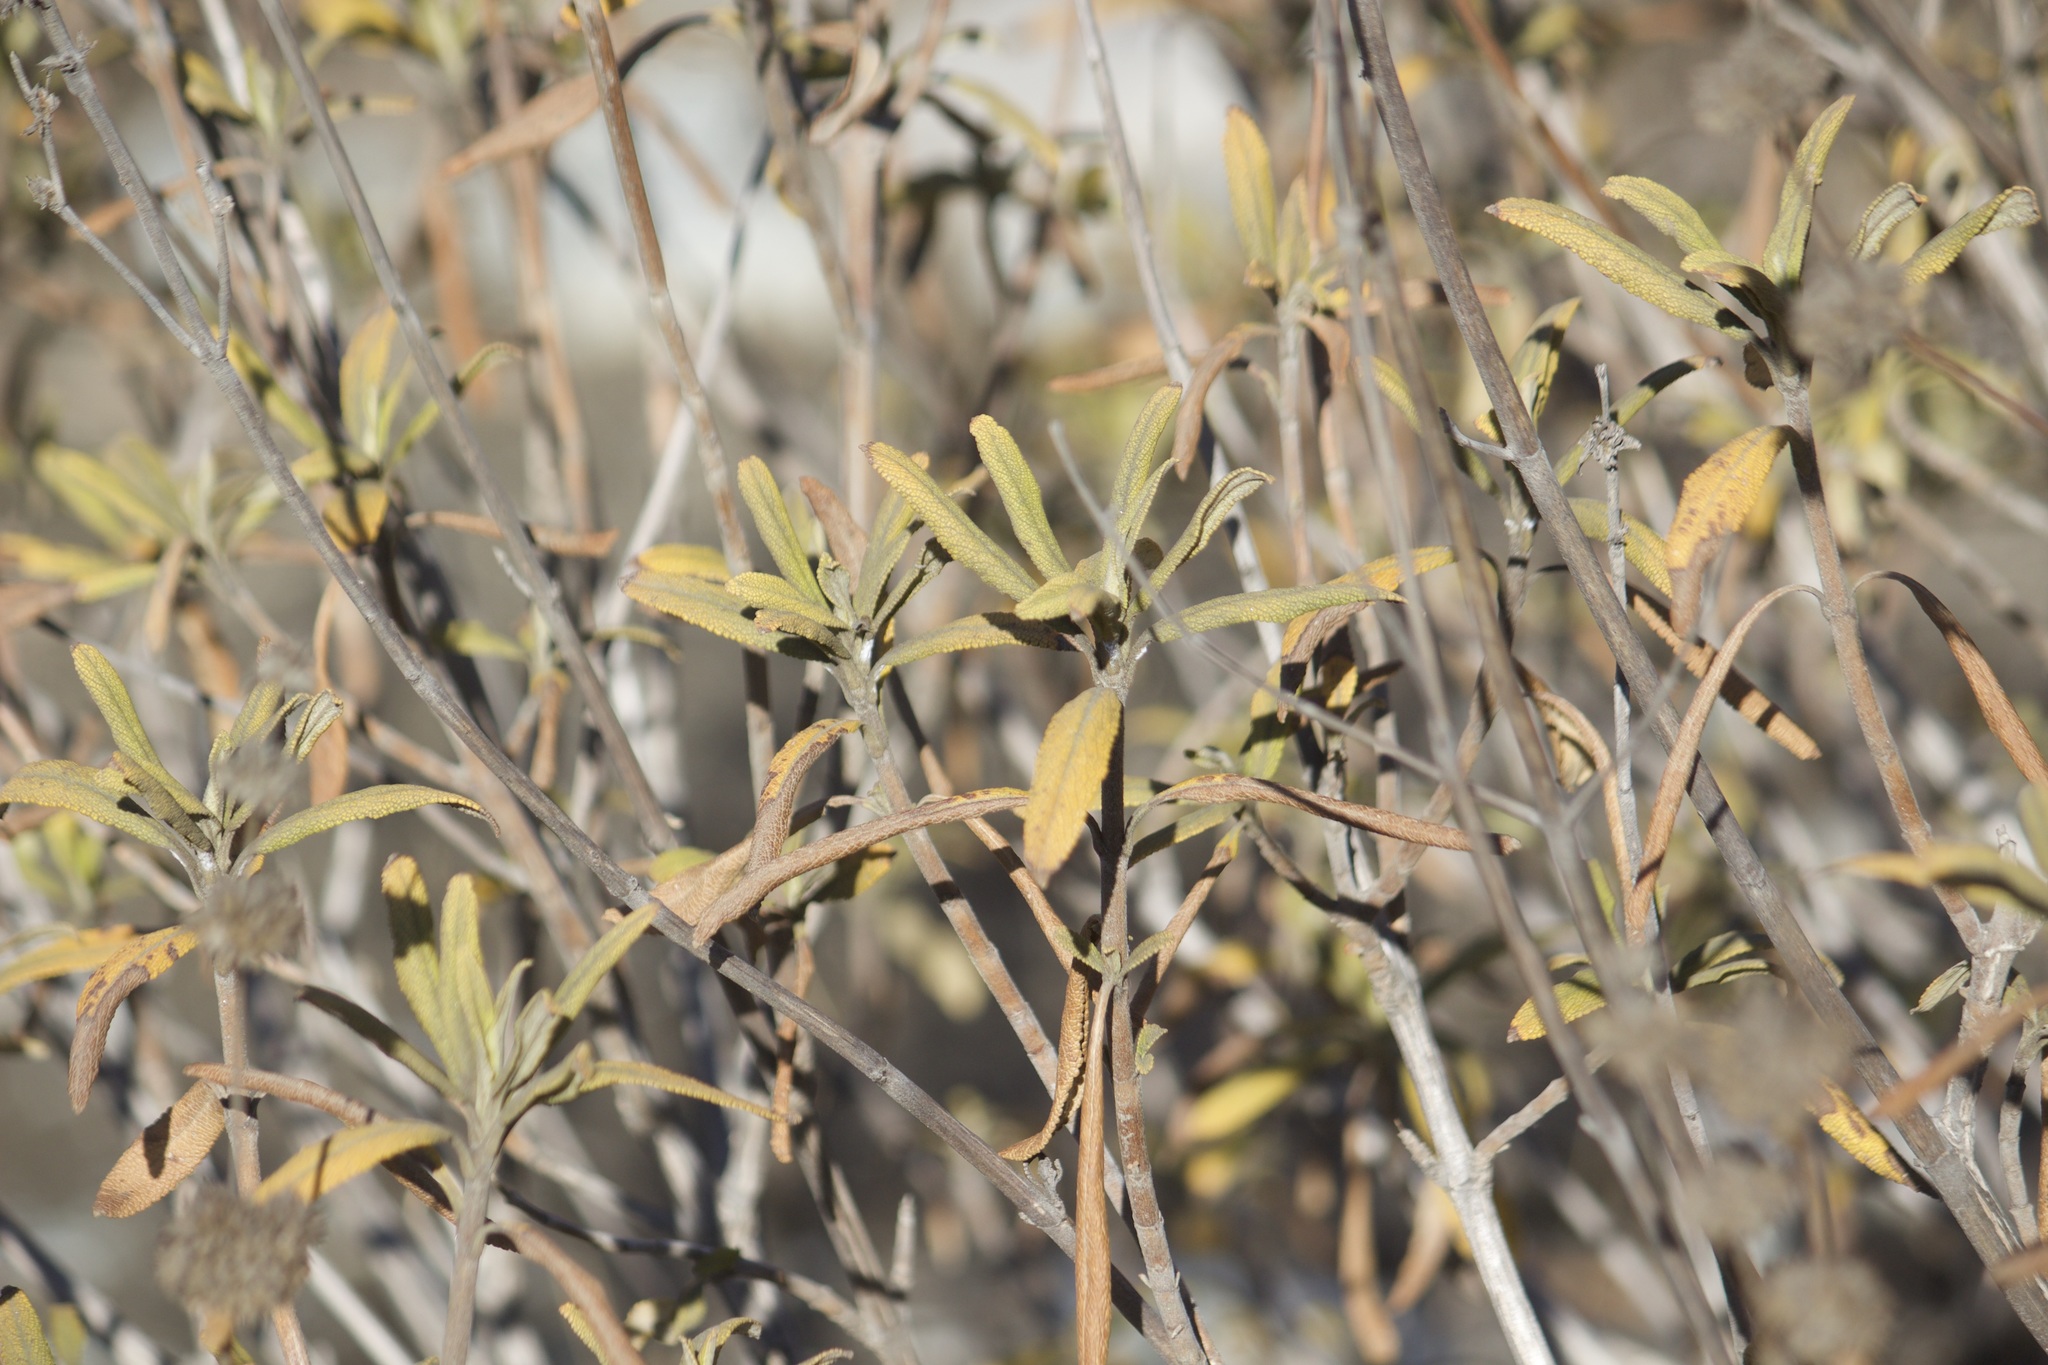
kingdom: Plantae
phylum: Tracheophyta
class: Magnoliopsida
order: Lamiales
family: Lamiaceae
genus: Salvia
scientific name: Salvia mellifera
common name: Black sage
